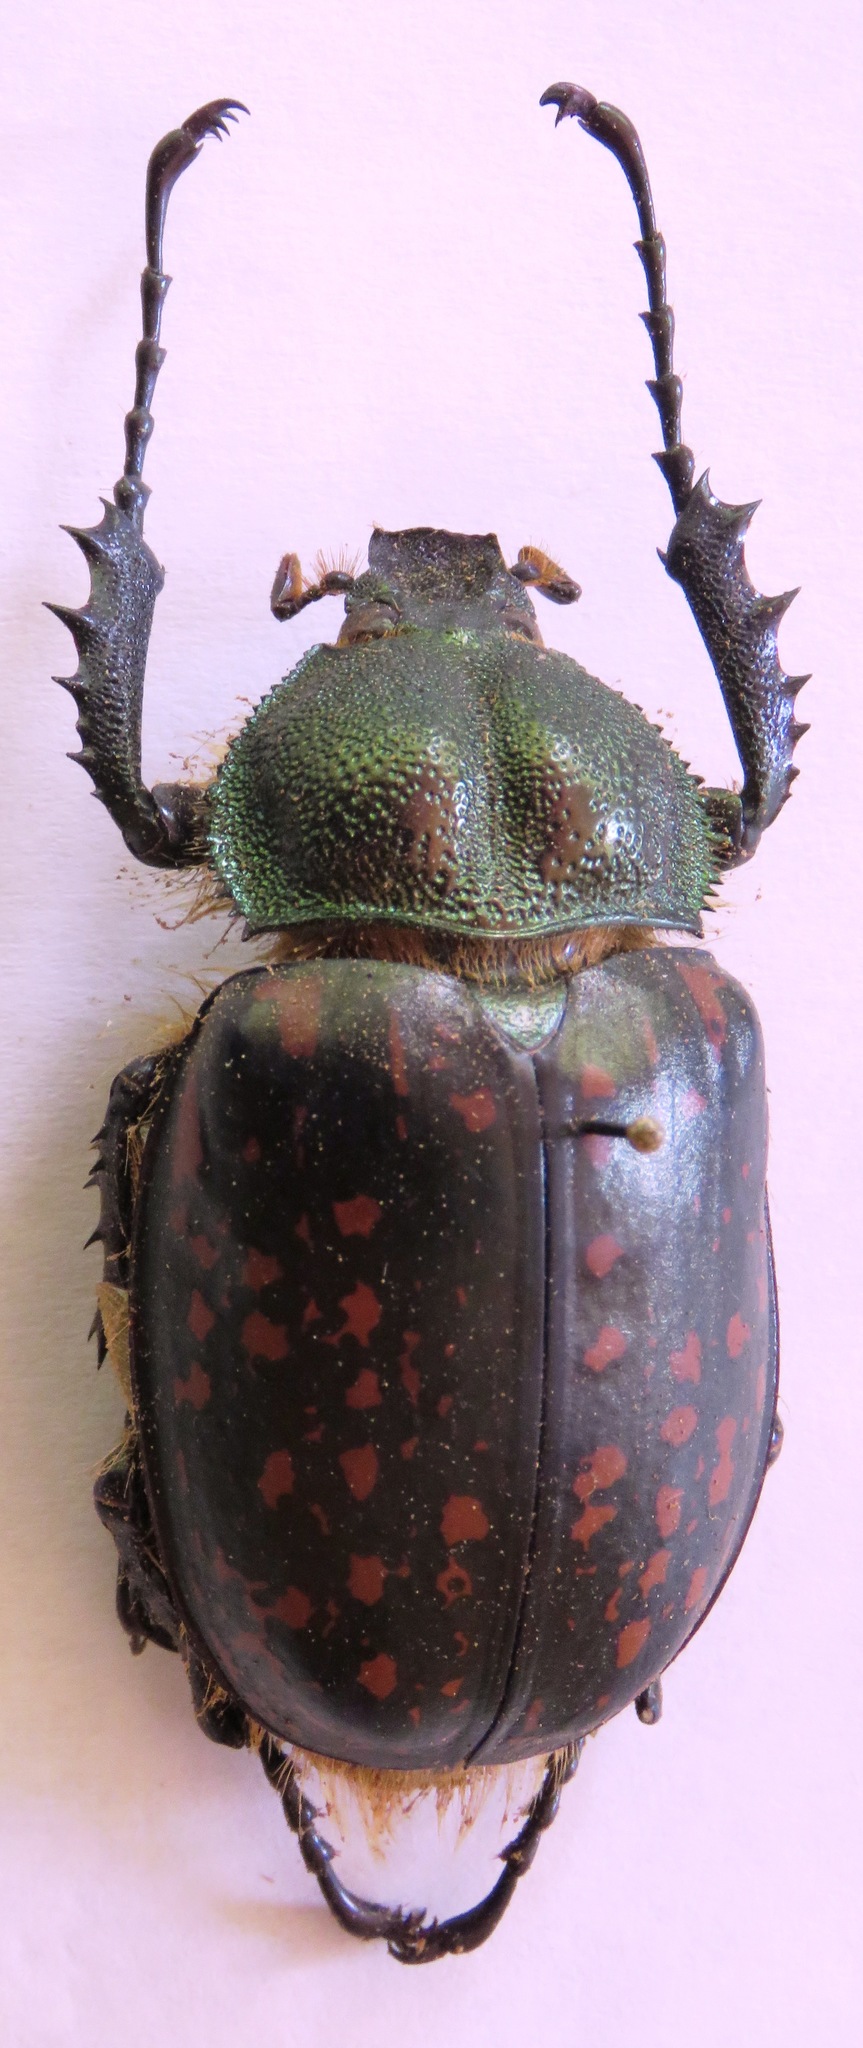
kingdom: Animalia
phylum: Arthropoda
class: Insecta
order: Coleoptera
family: Scarabaeidae
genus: Cheirotonus
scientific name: Cheirotonus formosanus
